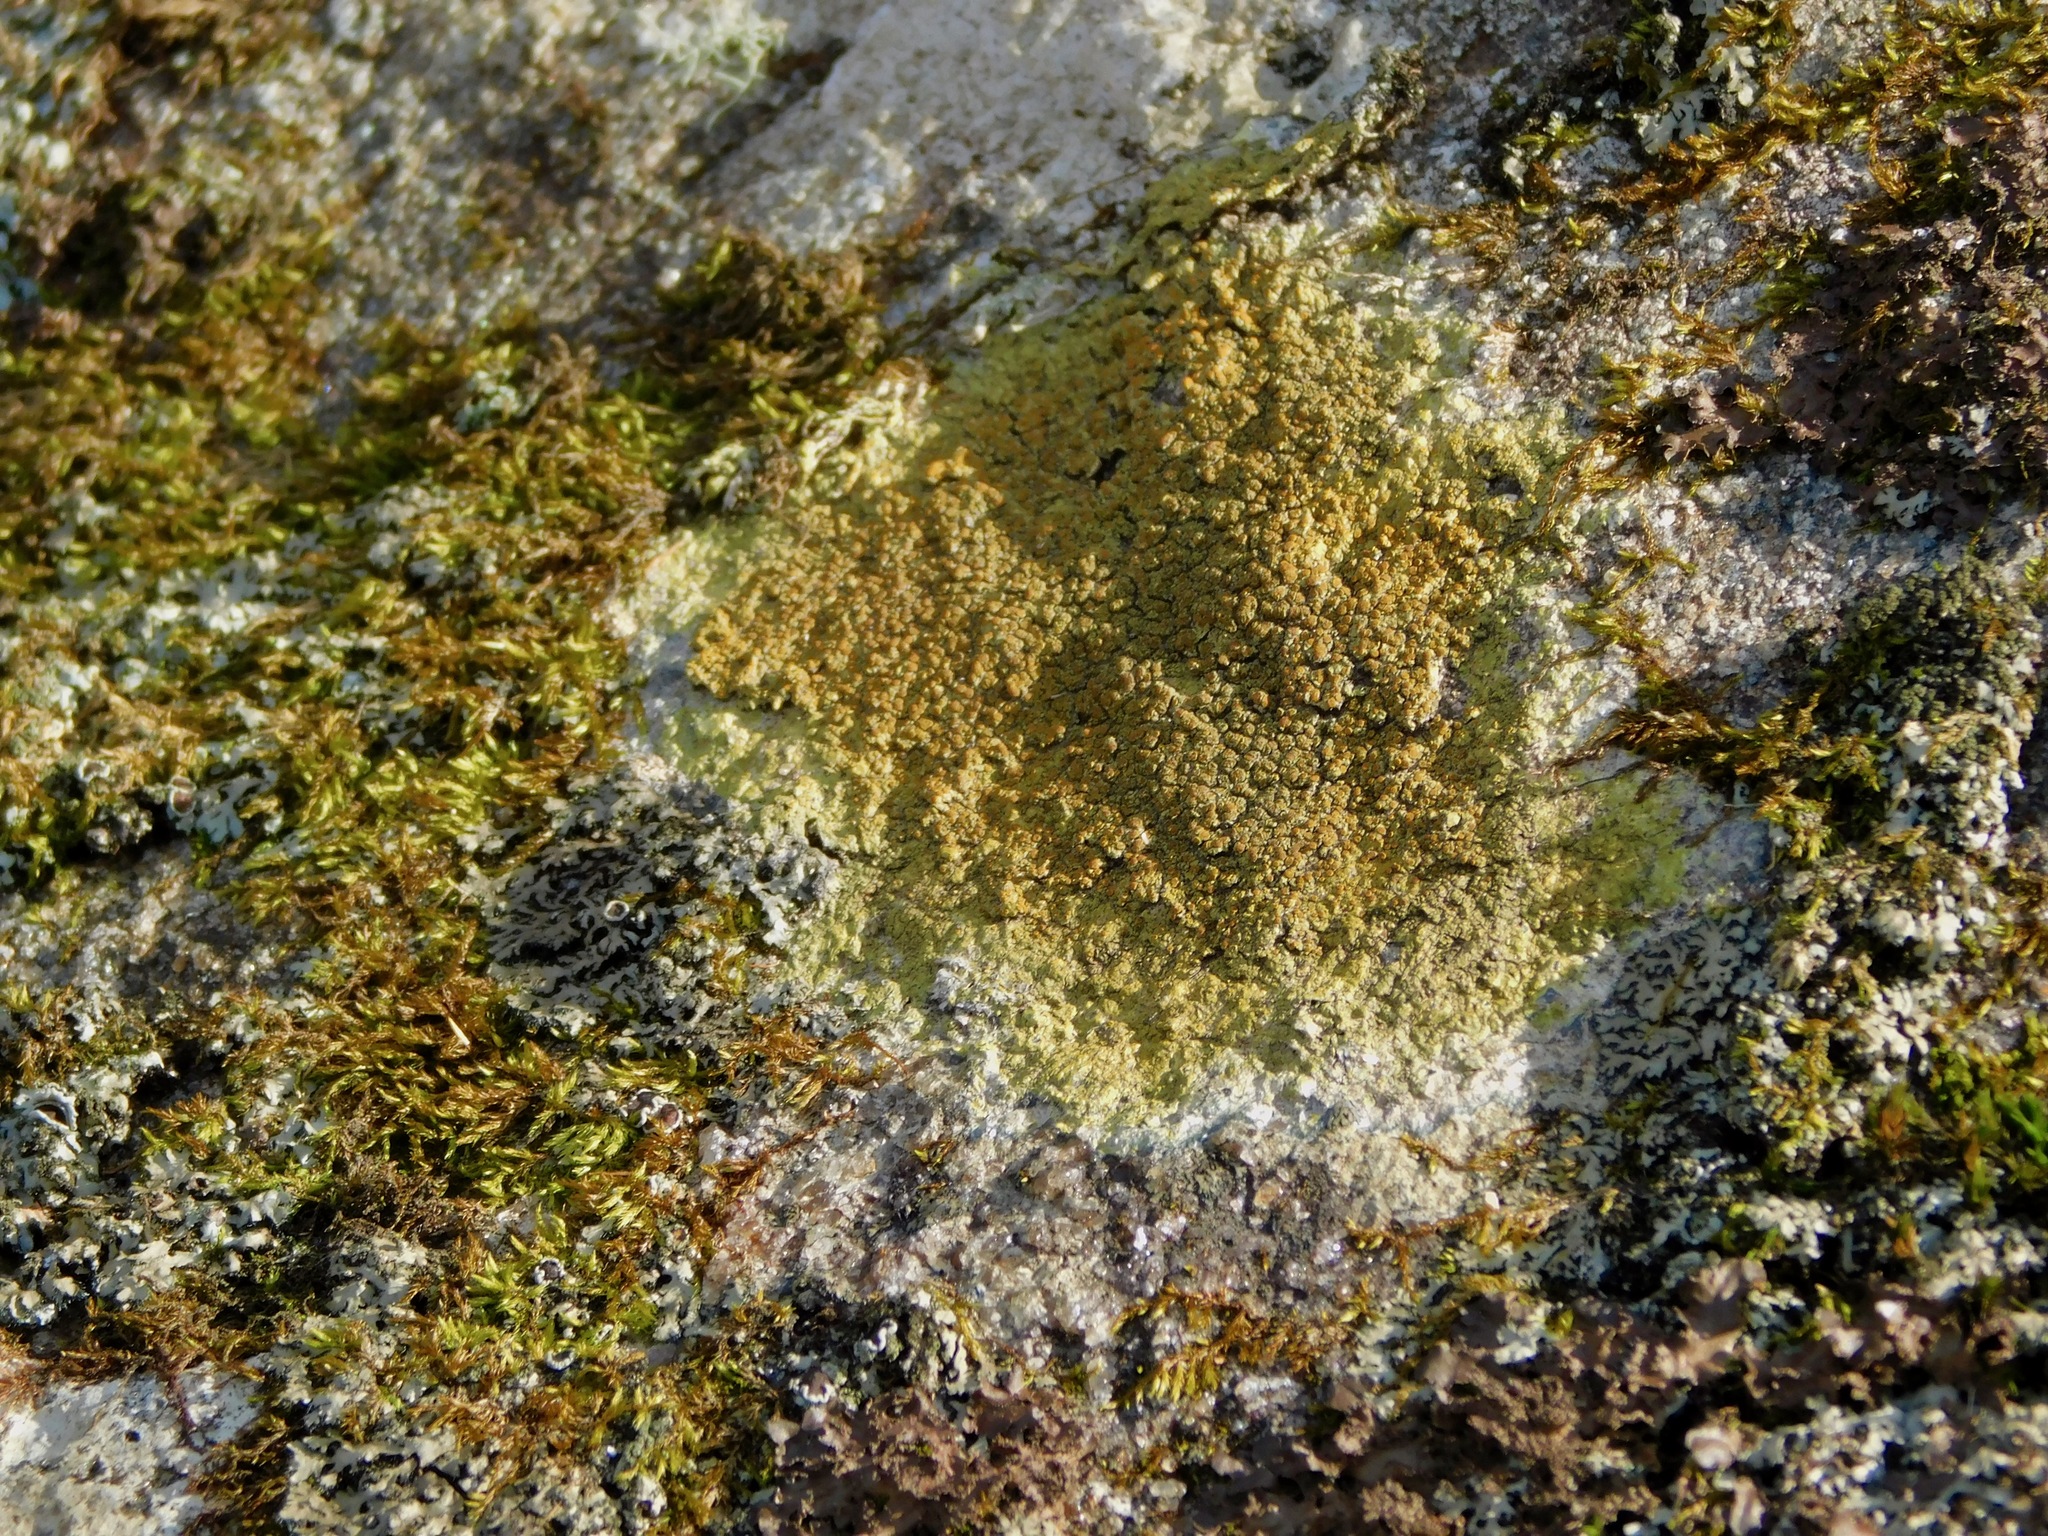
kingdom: Fungi
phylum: Ascomycota
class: Lecanoromycetes
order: Teloschistales
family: Teloschistaceae
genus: Gyalolechia
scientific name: Gyalolechia flavovirescens
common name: Sulphur firedot
